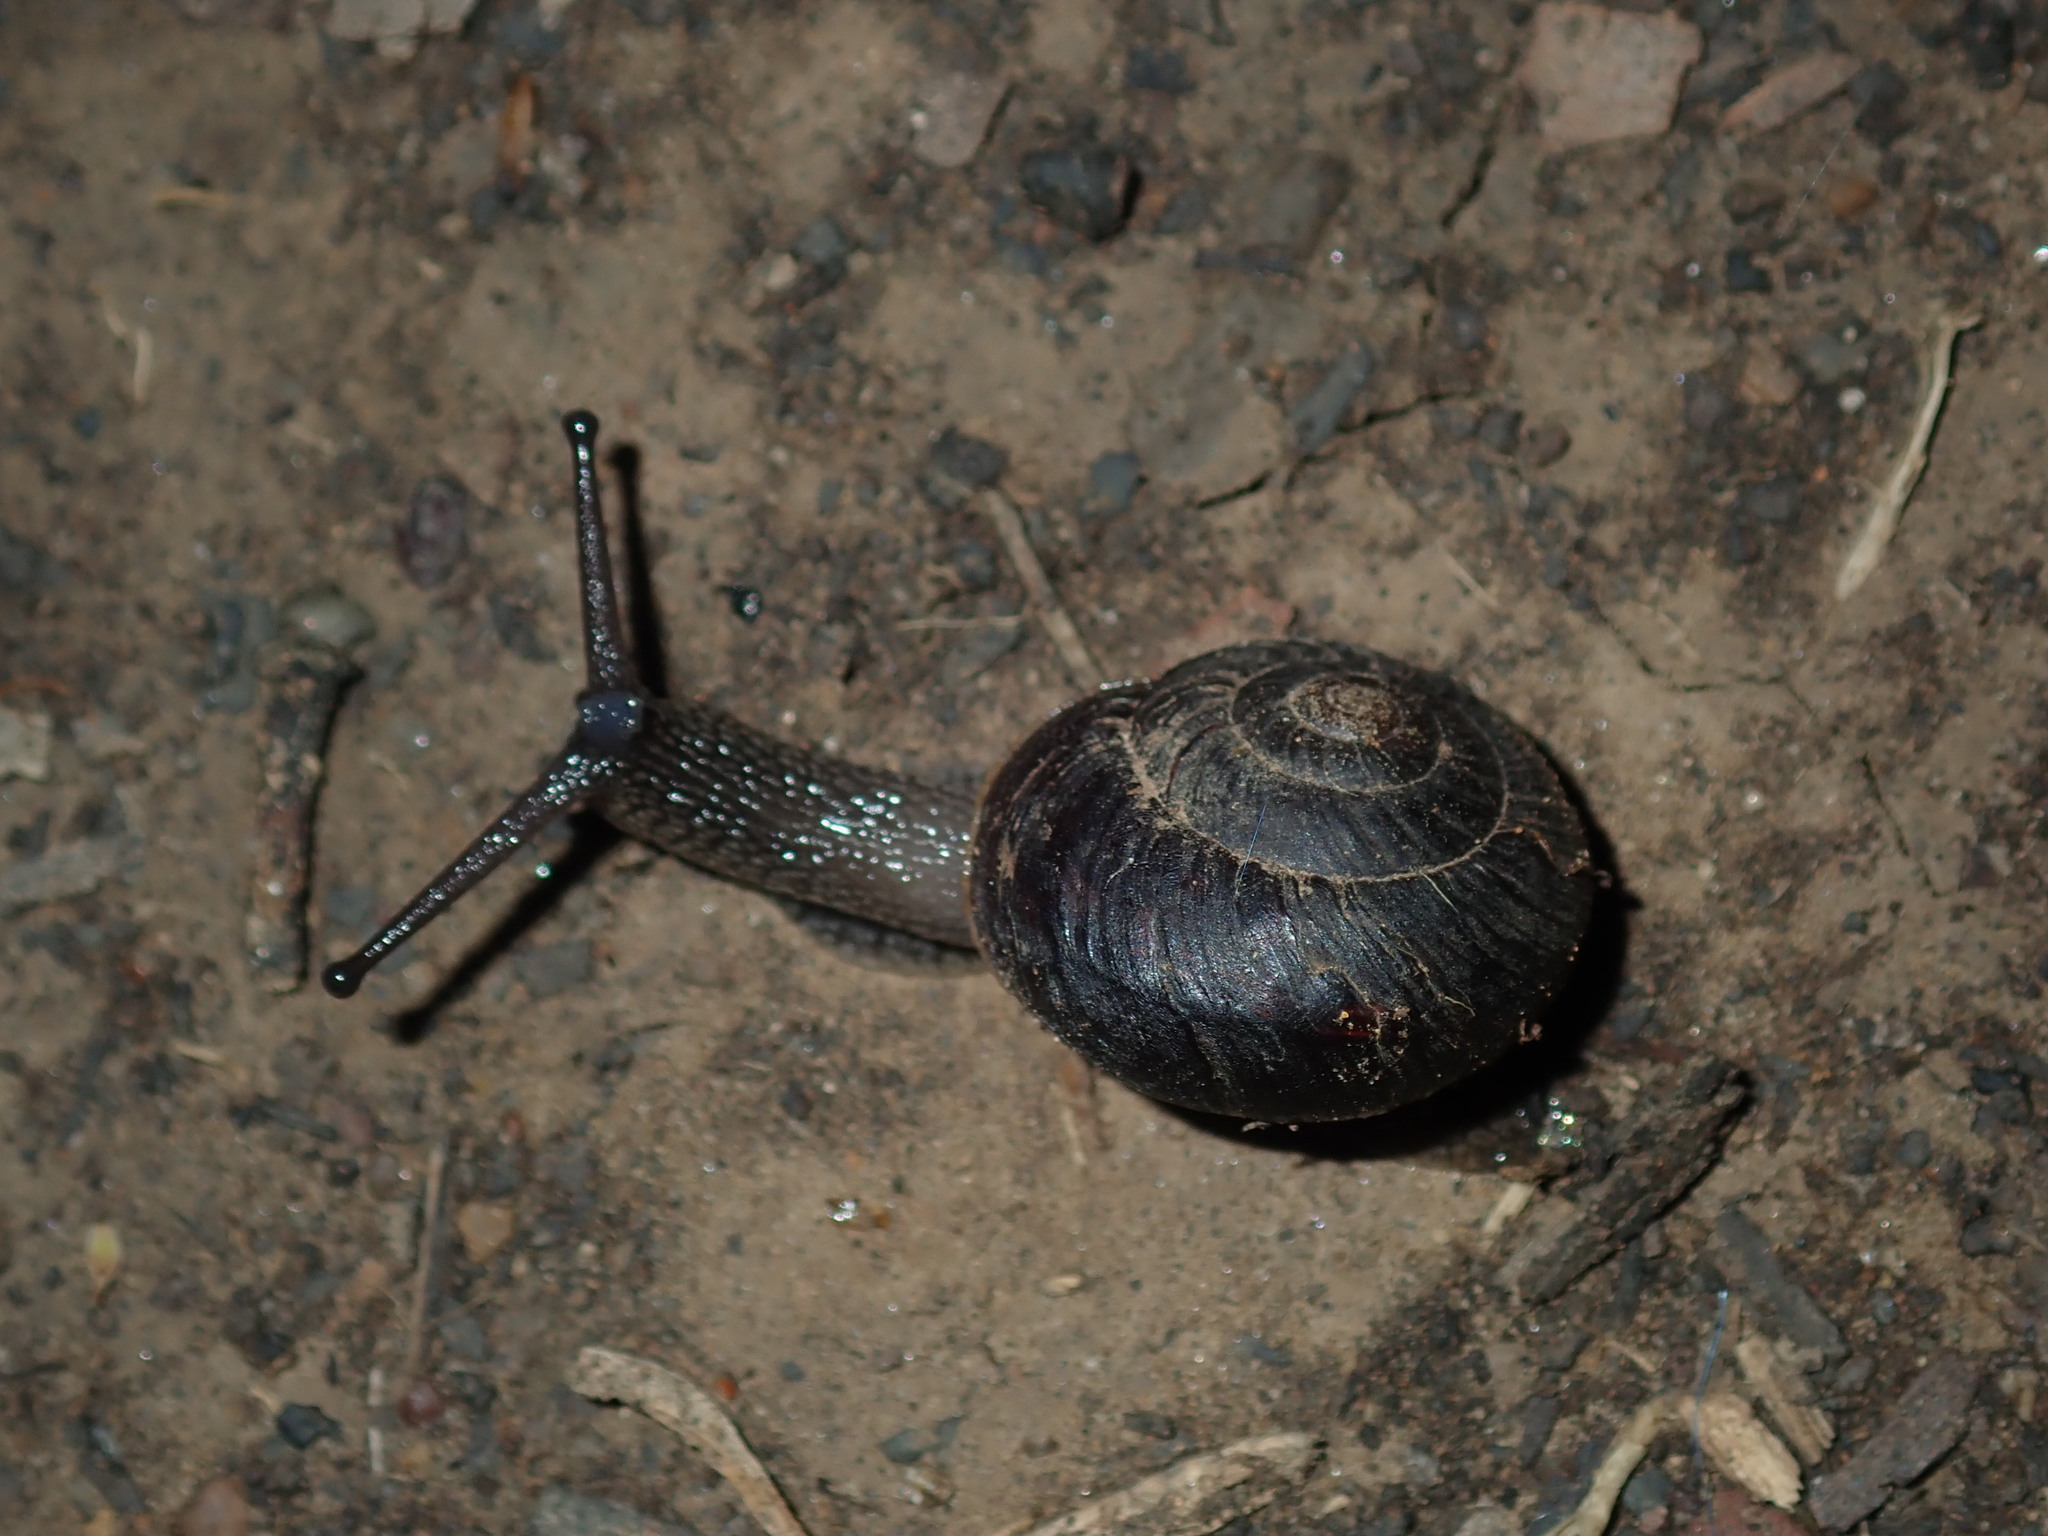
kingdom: Animalia
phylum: Mollusca
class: Gastropoda
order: Stylommatophora
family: Camaenidae
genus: Sauroconcha
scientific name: Sauroconcha sheai
